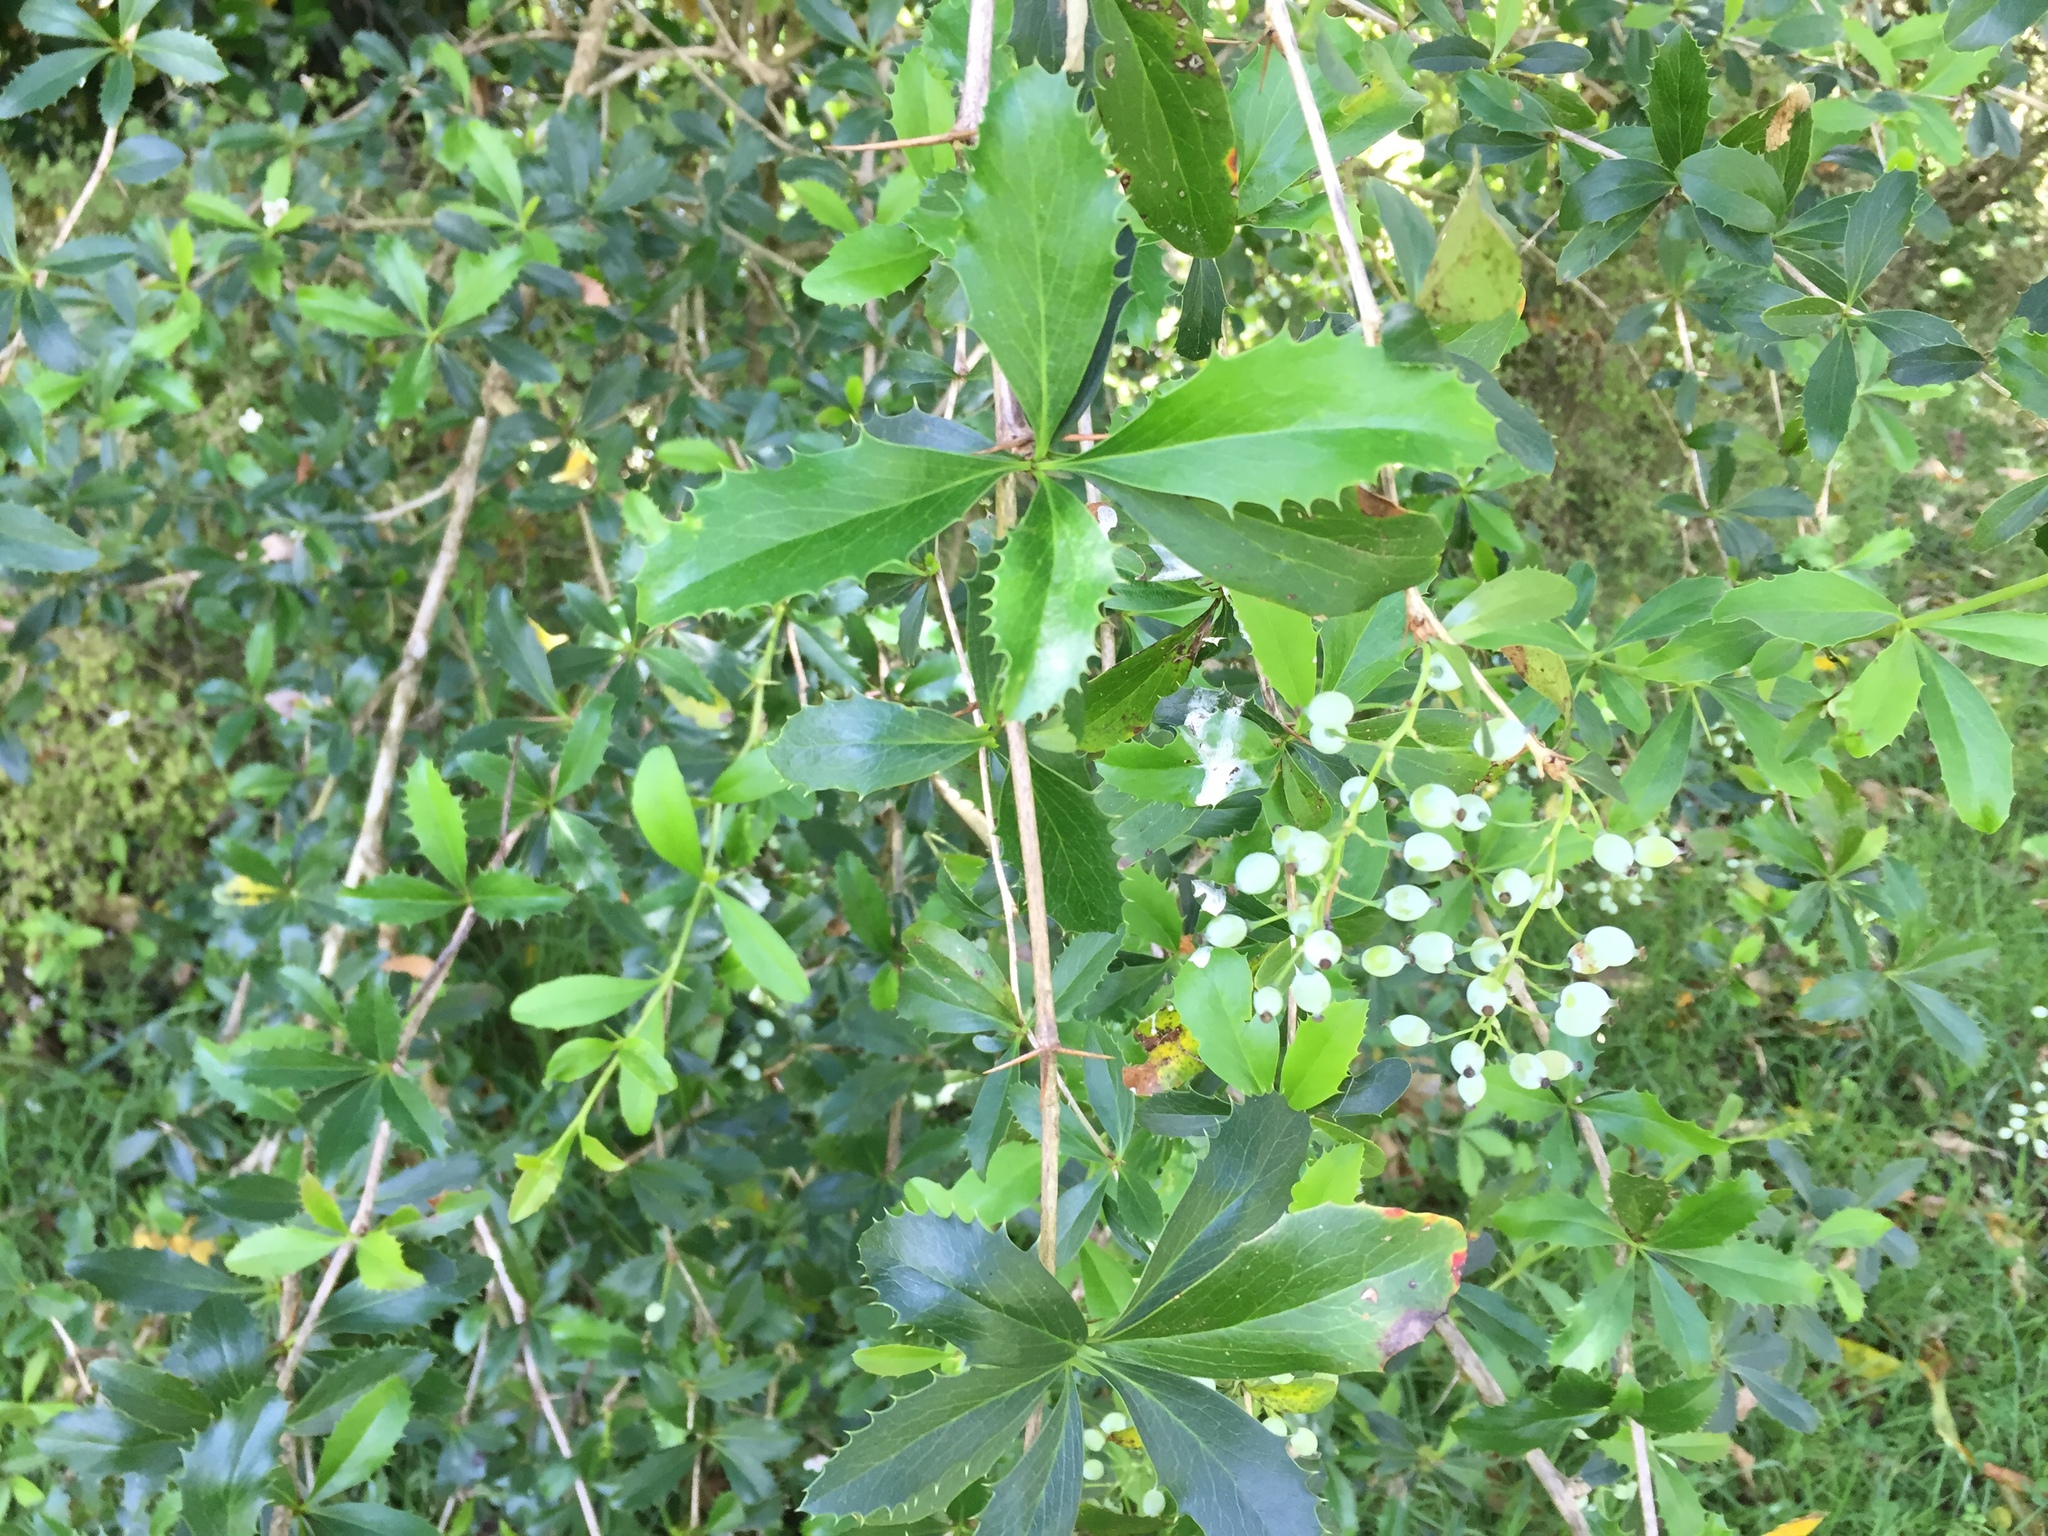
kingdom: Plantae
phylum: Tracheophyta
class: Magnoliopsida
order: Ranunculales
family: Berberidaceae
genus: Berberis
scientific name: Berberis glaucocarpa
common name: Great barberry
